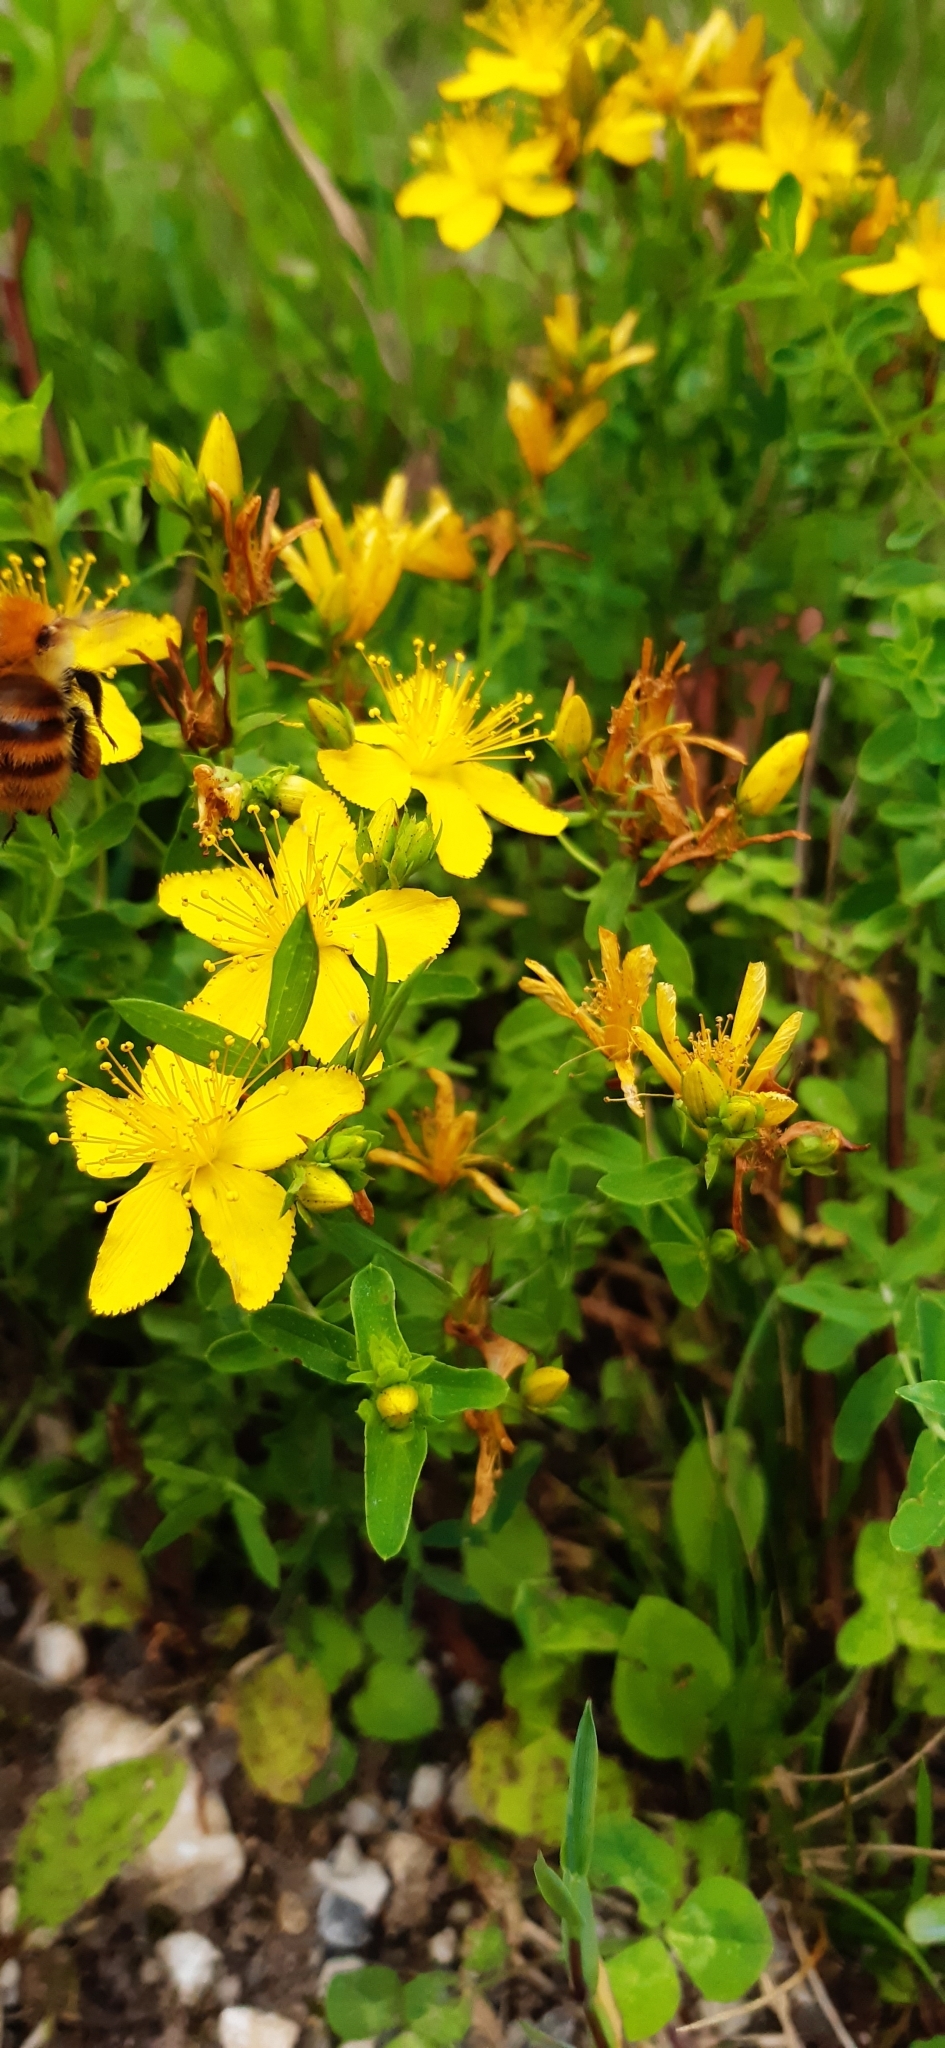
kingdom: Plantae
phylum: Tracheophyta
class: Magnoliopsida
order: Malpighiales
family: Hypericaceae
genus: Hypericum
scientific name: Hypericum perforatum
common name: Common st. johnswort
